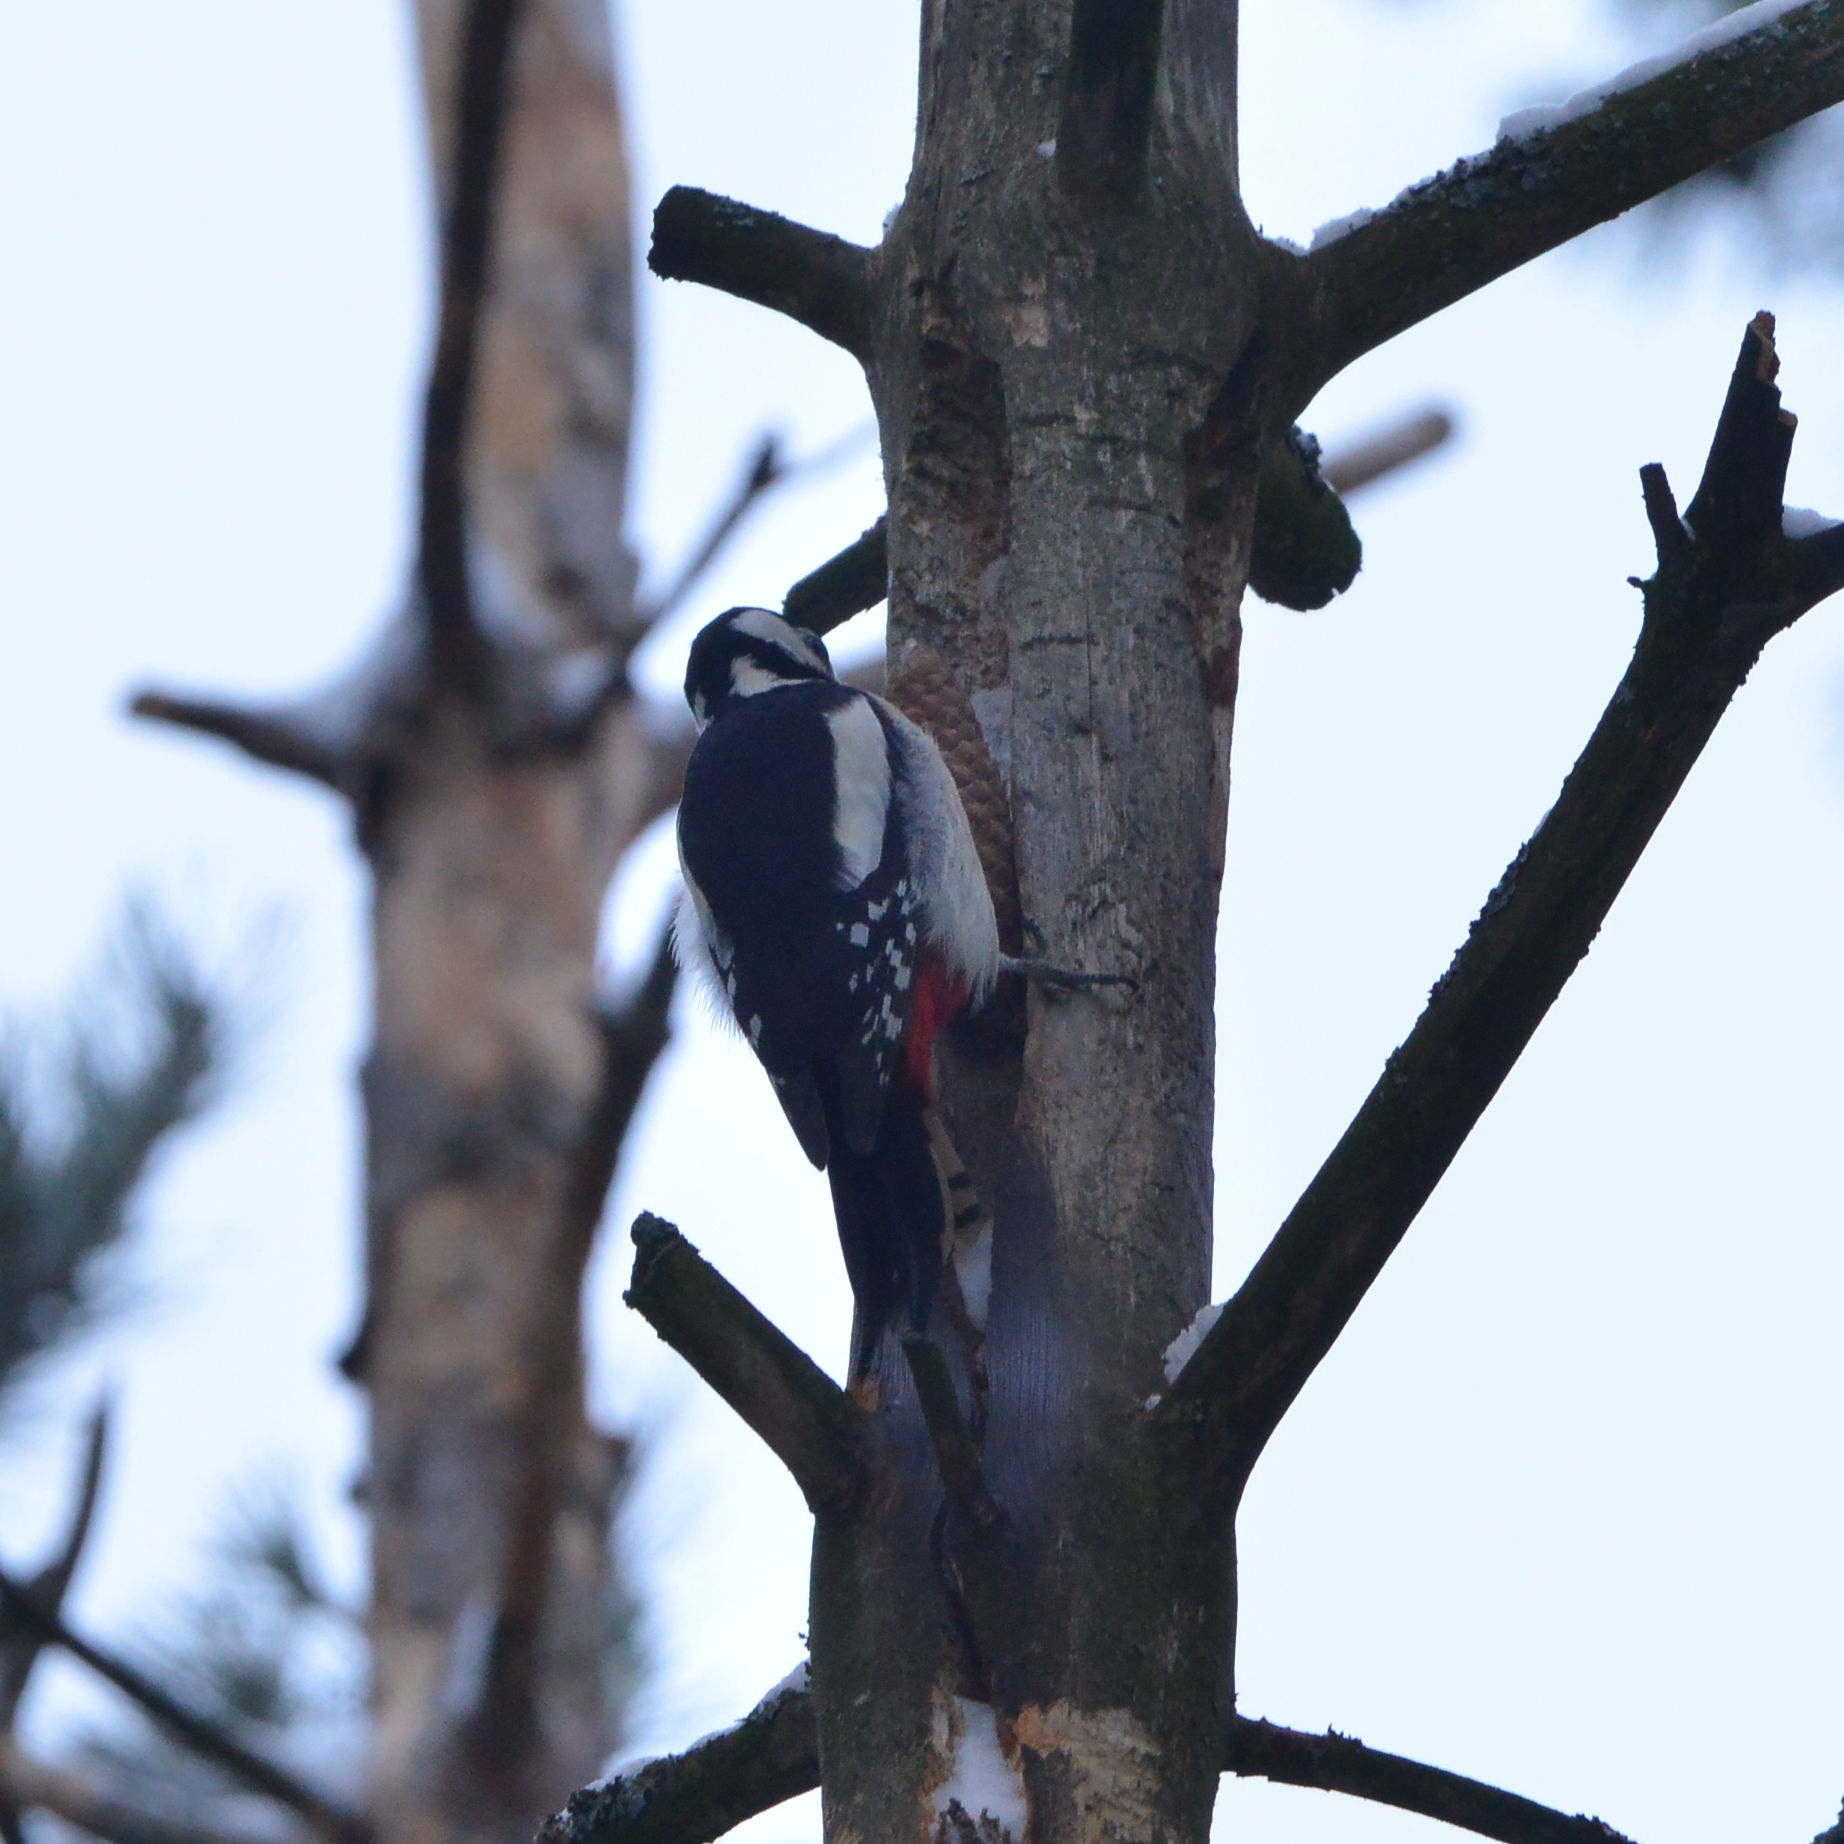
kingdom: Animalia
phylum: Chordata
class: Aves
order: Piciformes
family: Picidae
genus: Dendrocopos
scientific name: Dendrocopos major
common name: Great spotted woodpecker
